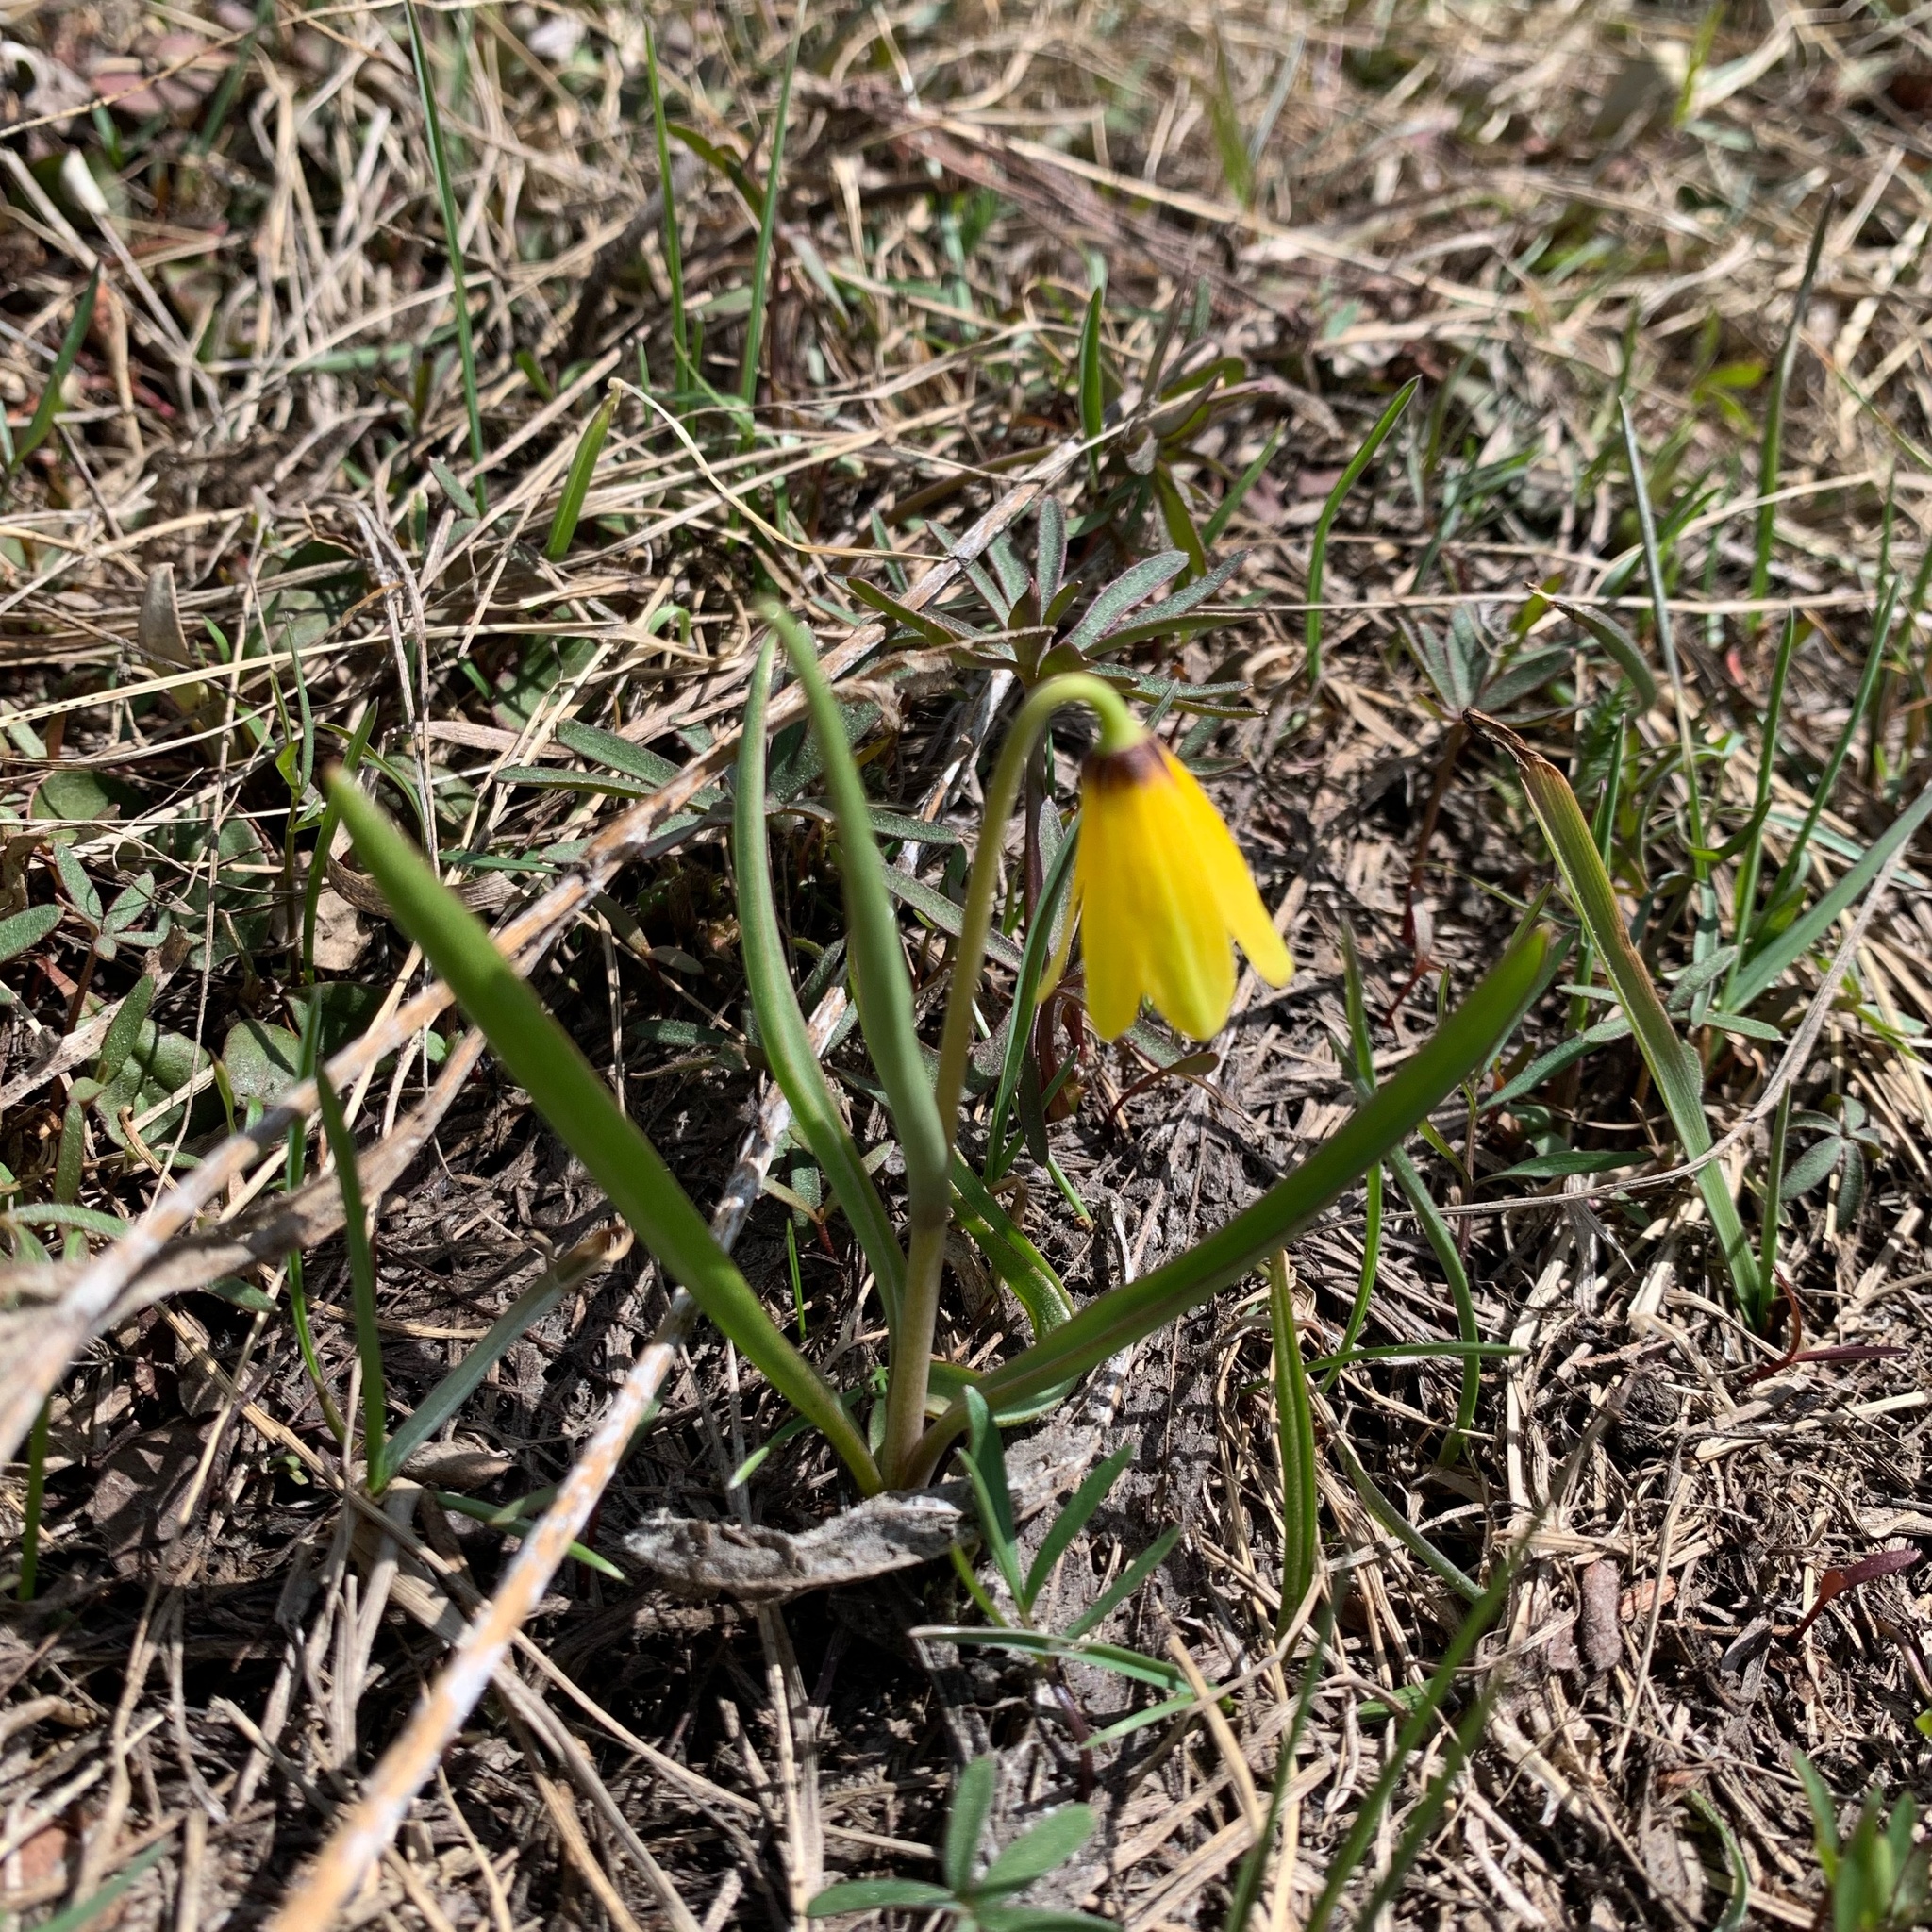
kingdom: Plantae
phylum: Tracheophyta
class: Liliopsida
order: Liliales
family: Liliaceae
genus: Fritillaria
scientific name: Fritillaria pudica
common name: Yellow fritillary
